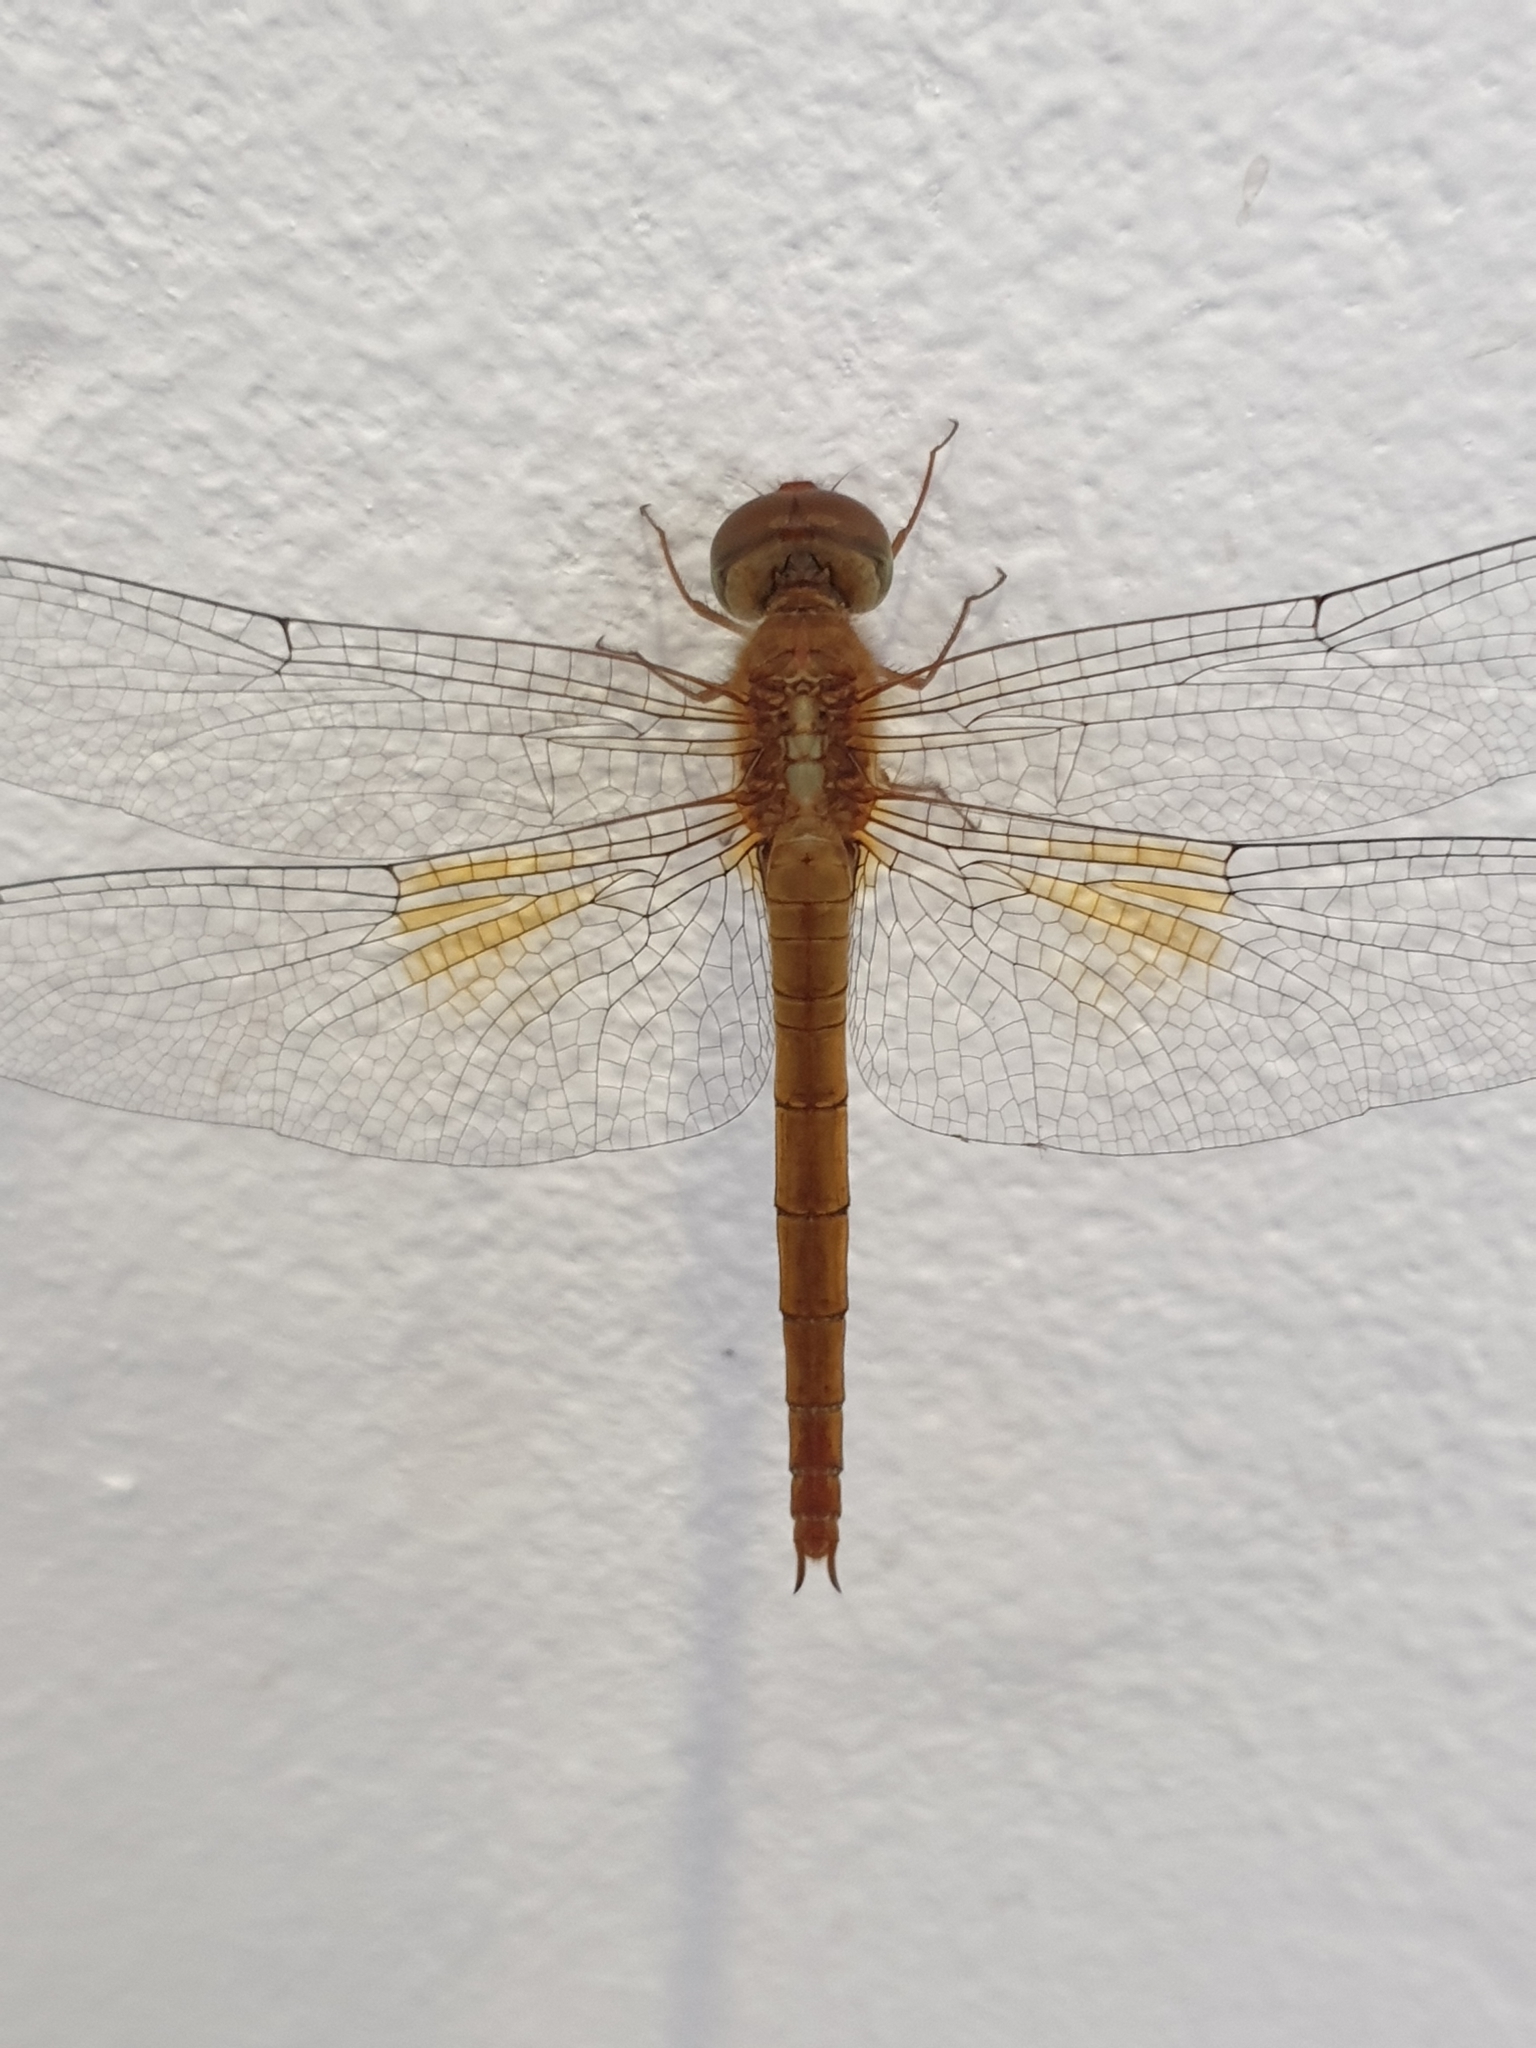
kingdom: Animalia
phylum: Arthropoda
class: Insecta
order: Odonata
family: Libellulidae
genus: Tholymis
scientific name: Tholymis tillarga
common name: Coral-tailed cloud wing
